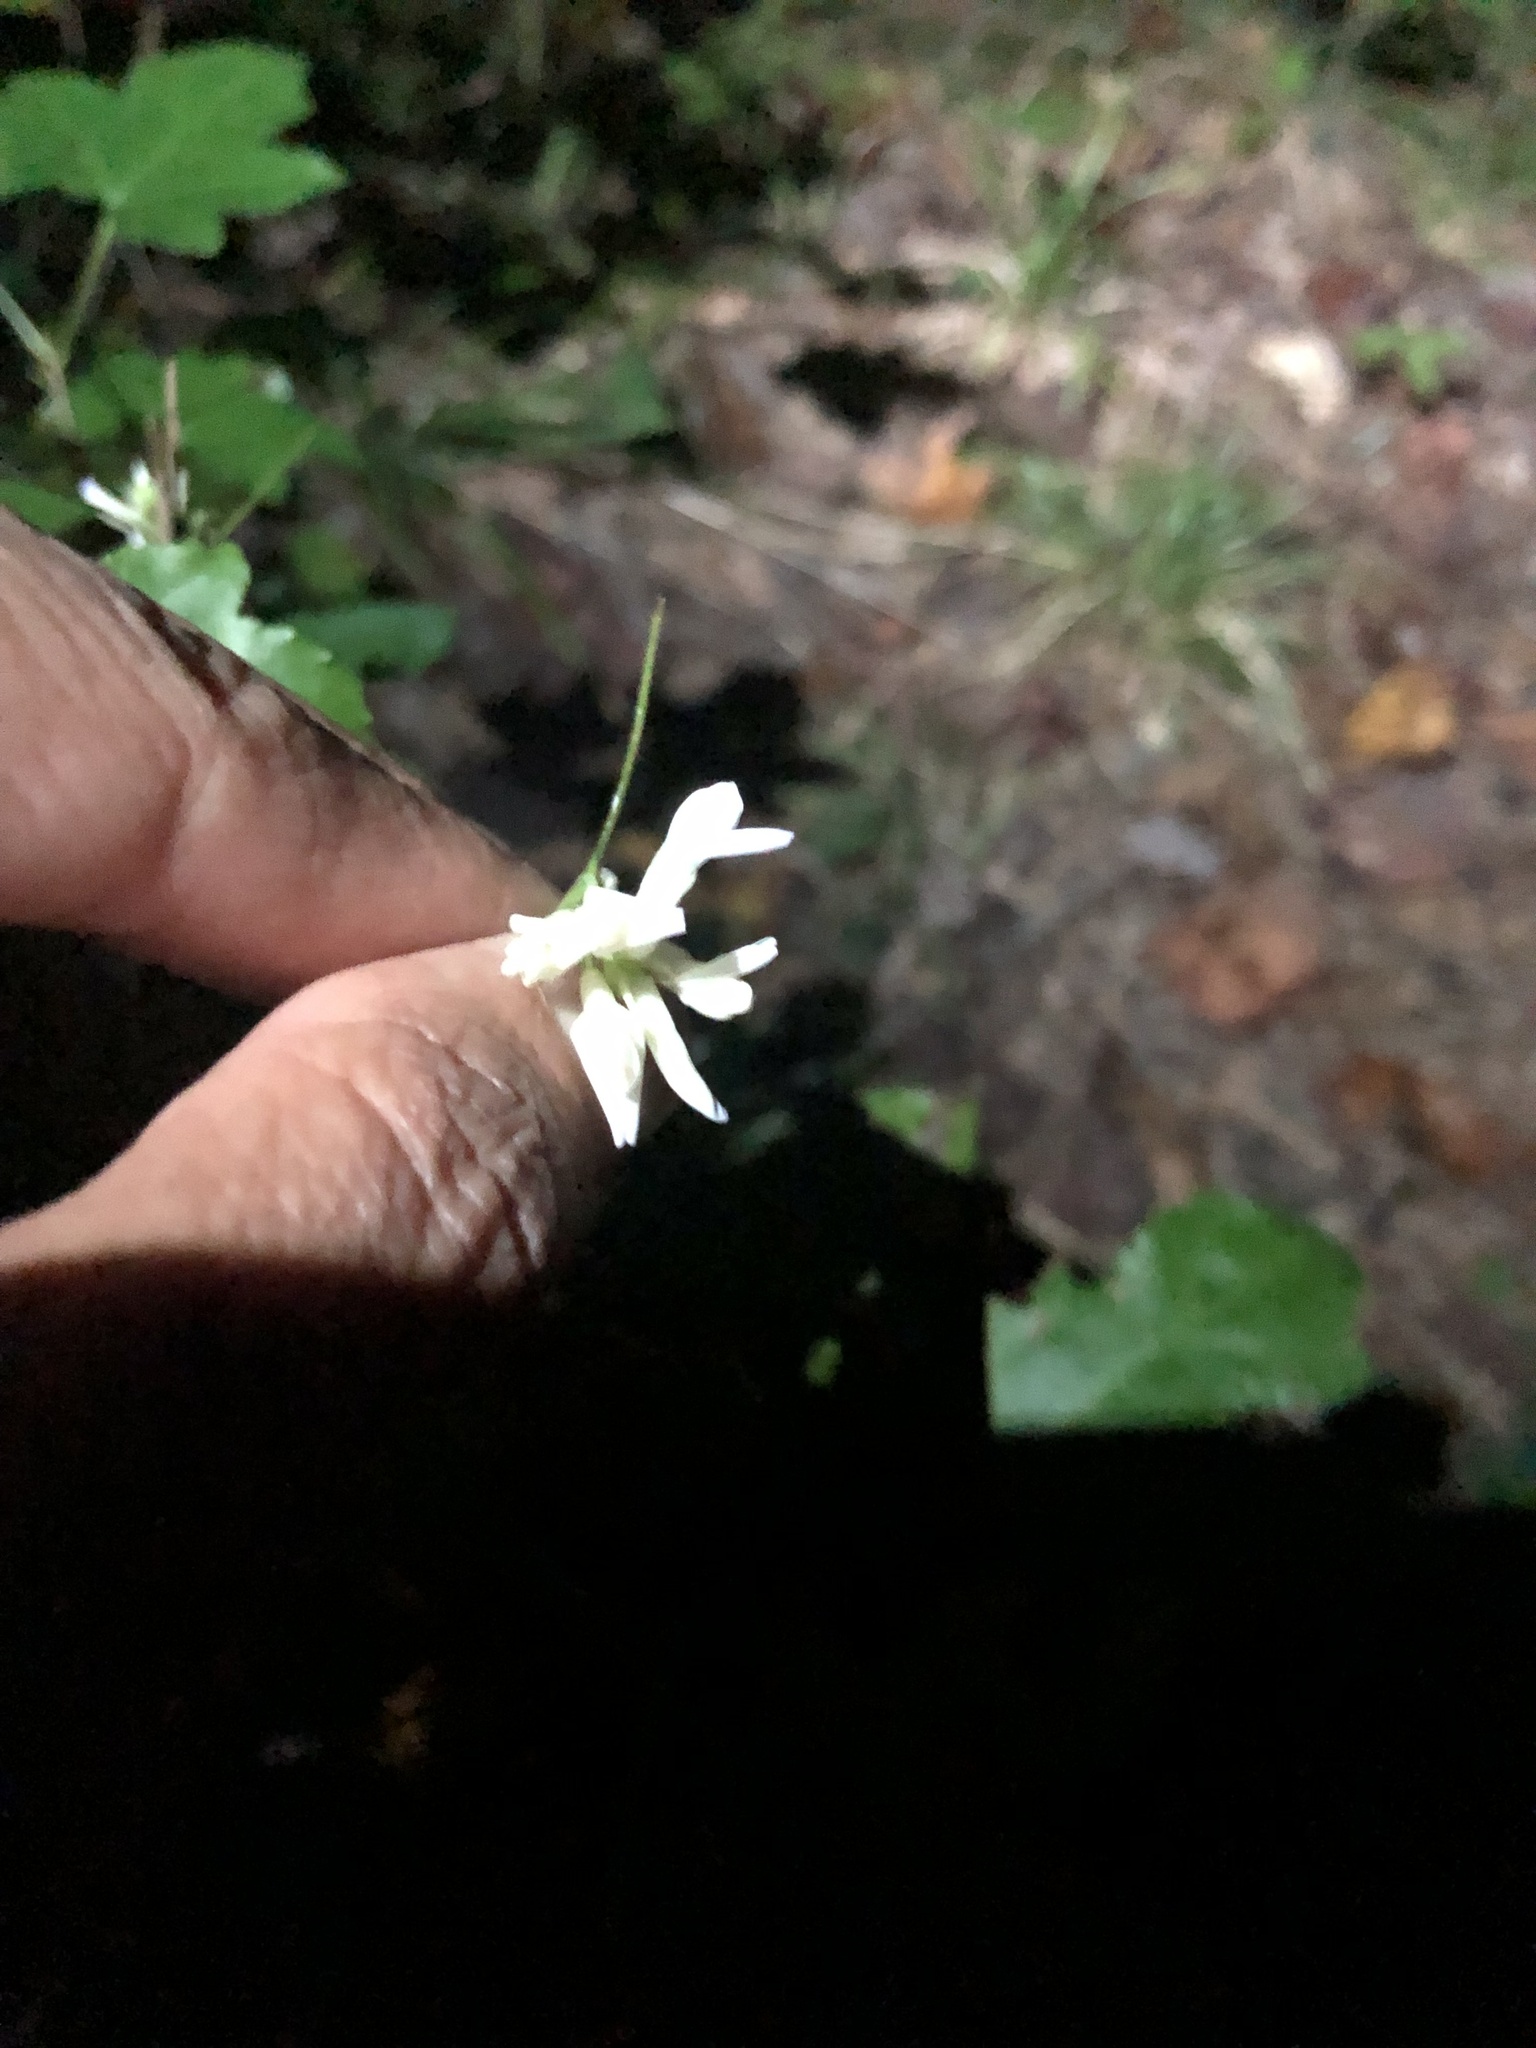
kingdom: Plantae
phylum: Tracheophyta
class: Magnoliopsida
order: Fabales
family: Fabaceae
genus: Amphicarpaea
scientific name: Amphicarpaea bracteata
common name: American hog peanut
